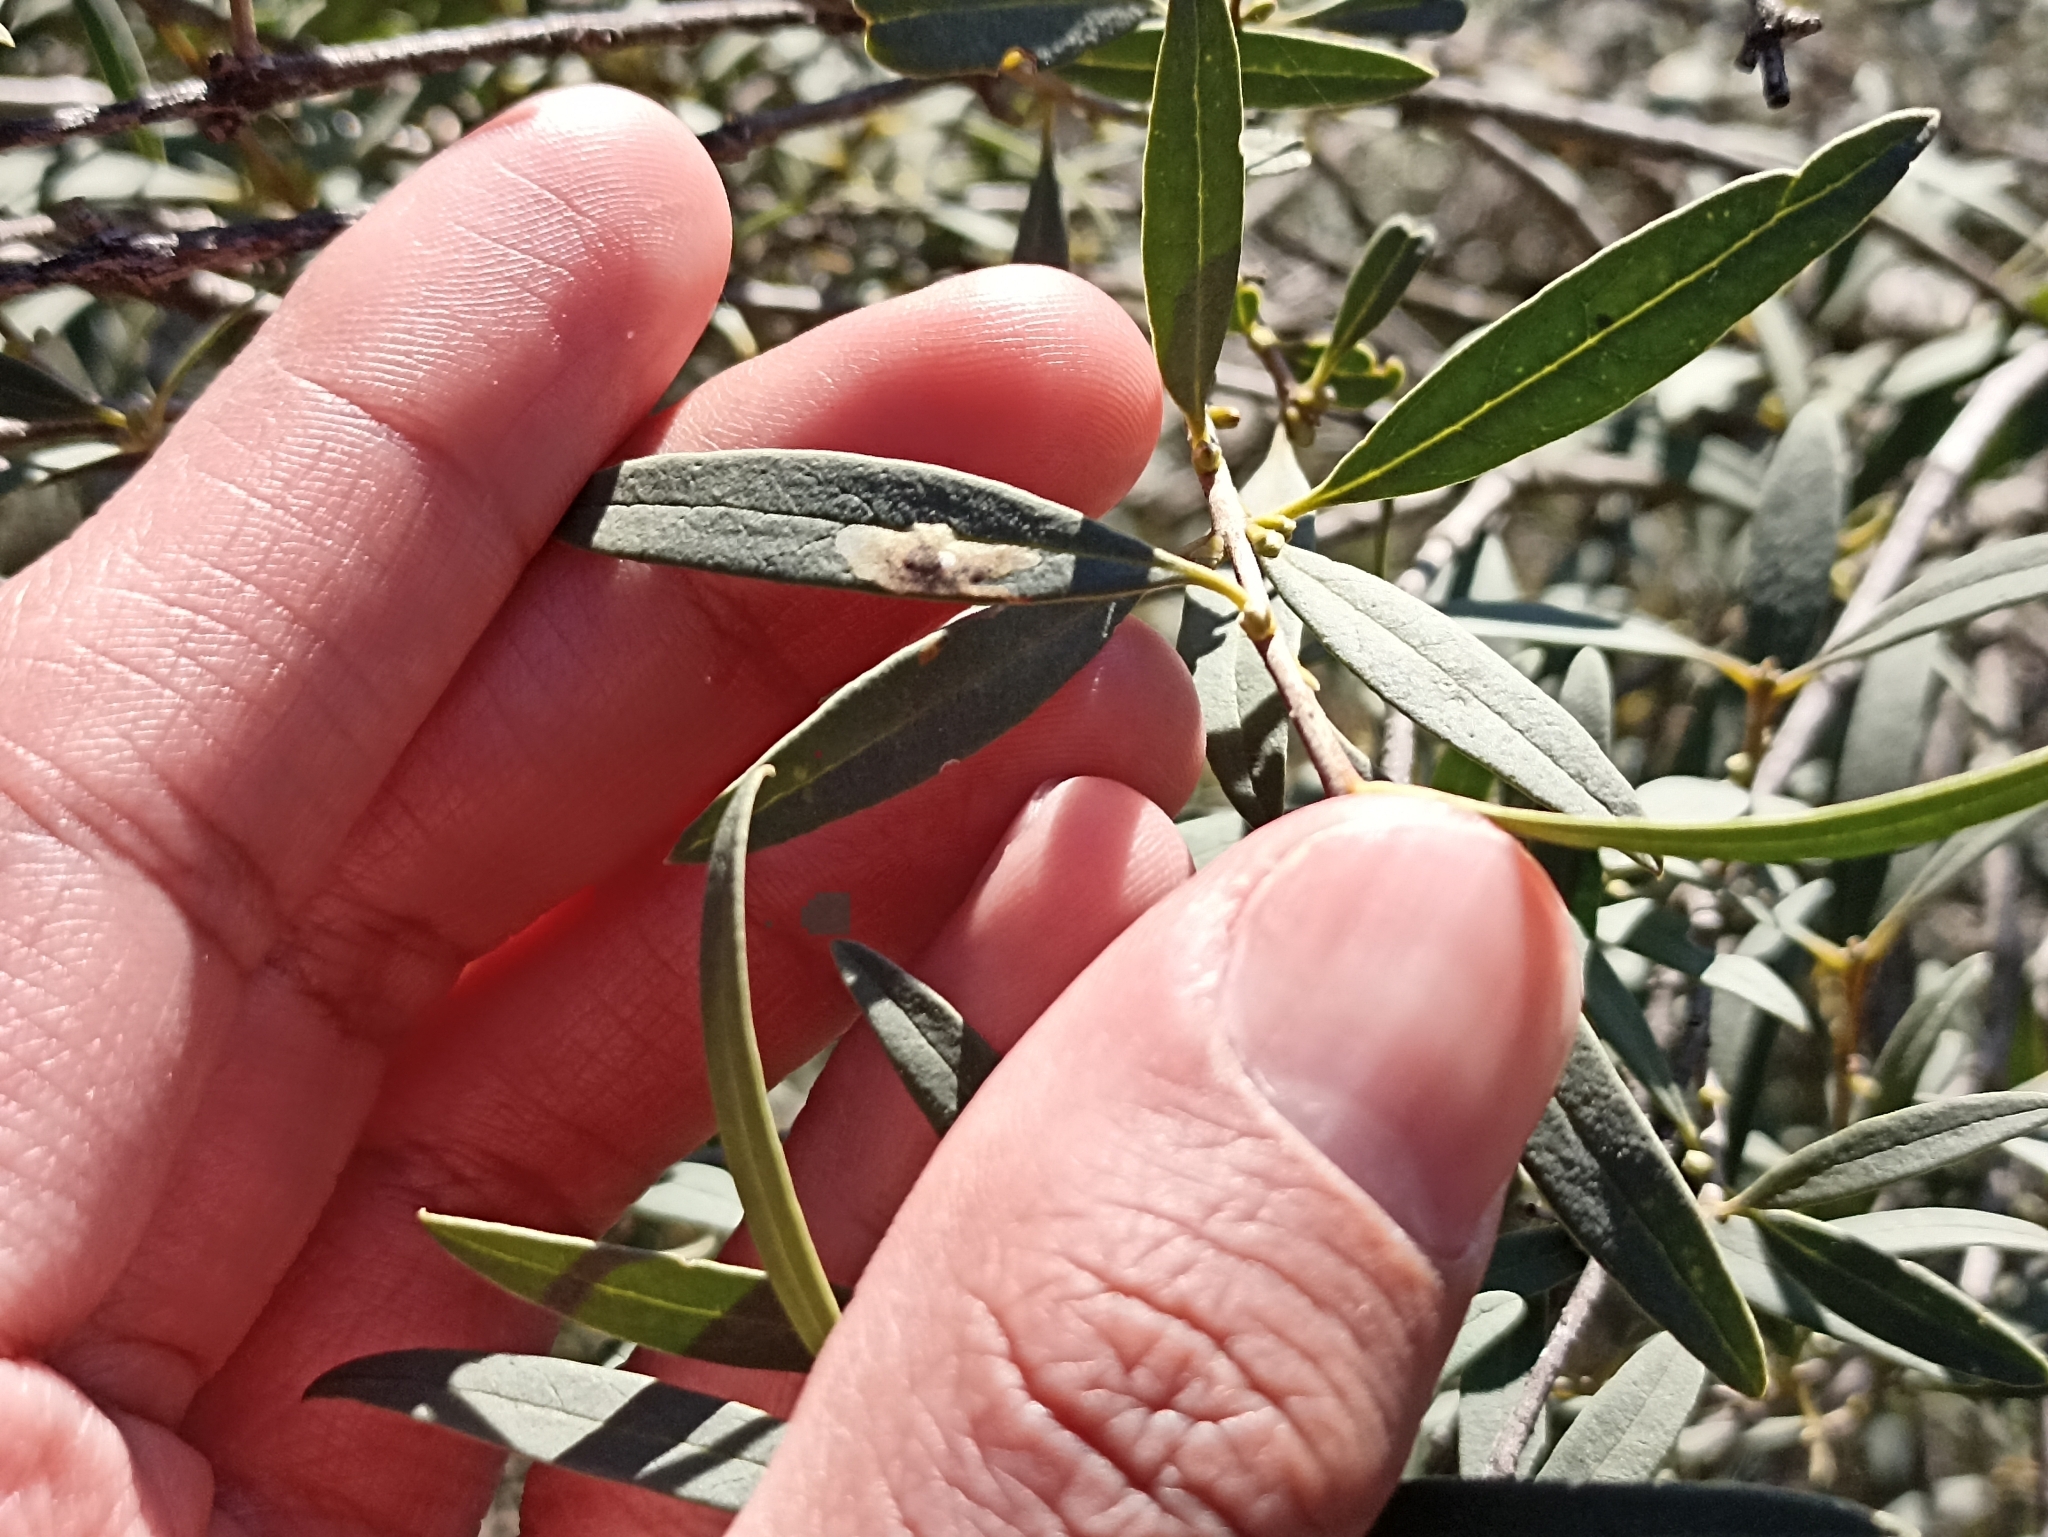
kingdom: Plantae
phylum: Tracheophyta
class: Magnoliopsida
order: Lamiales
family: Oleaceae
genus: Phillyrea
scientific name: Phillyrea angustifolia
